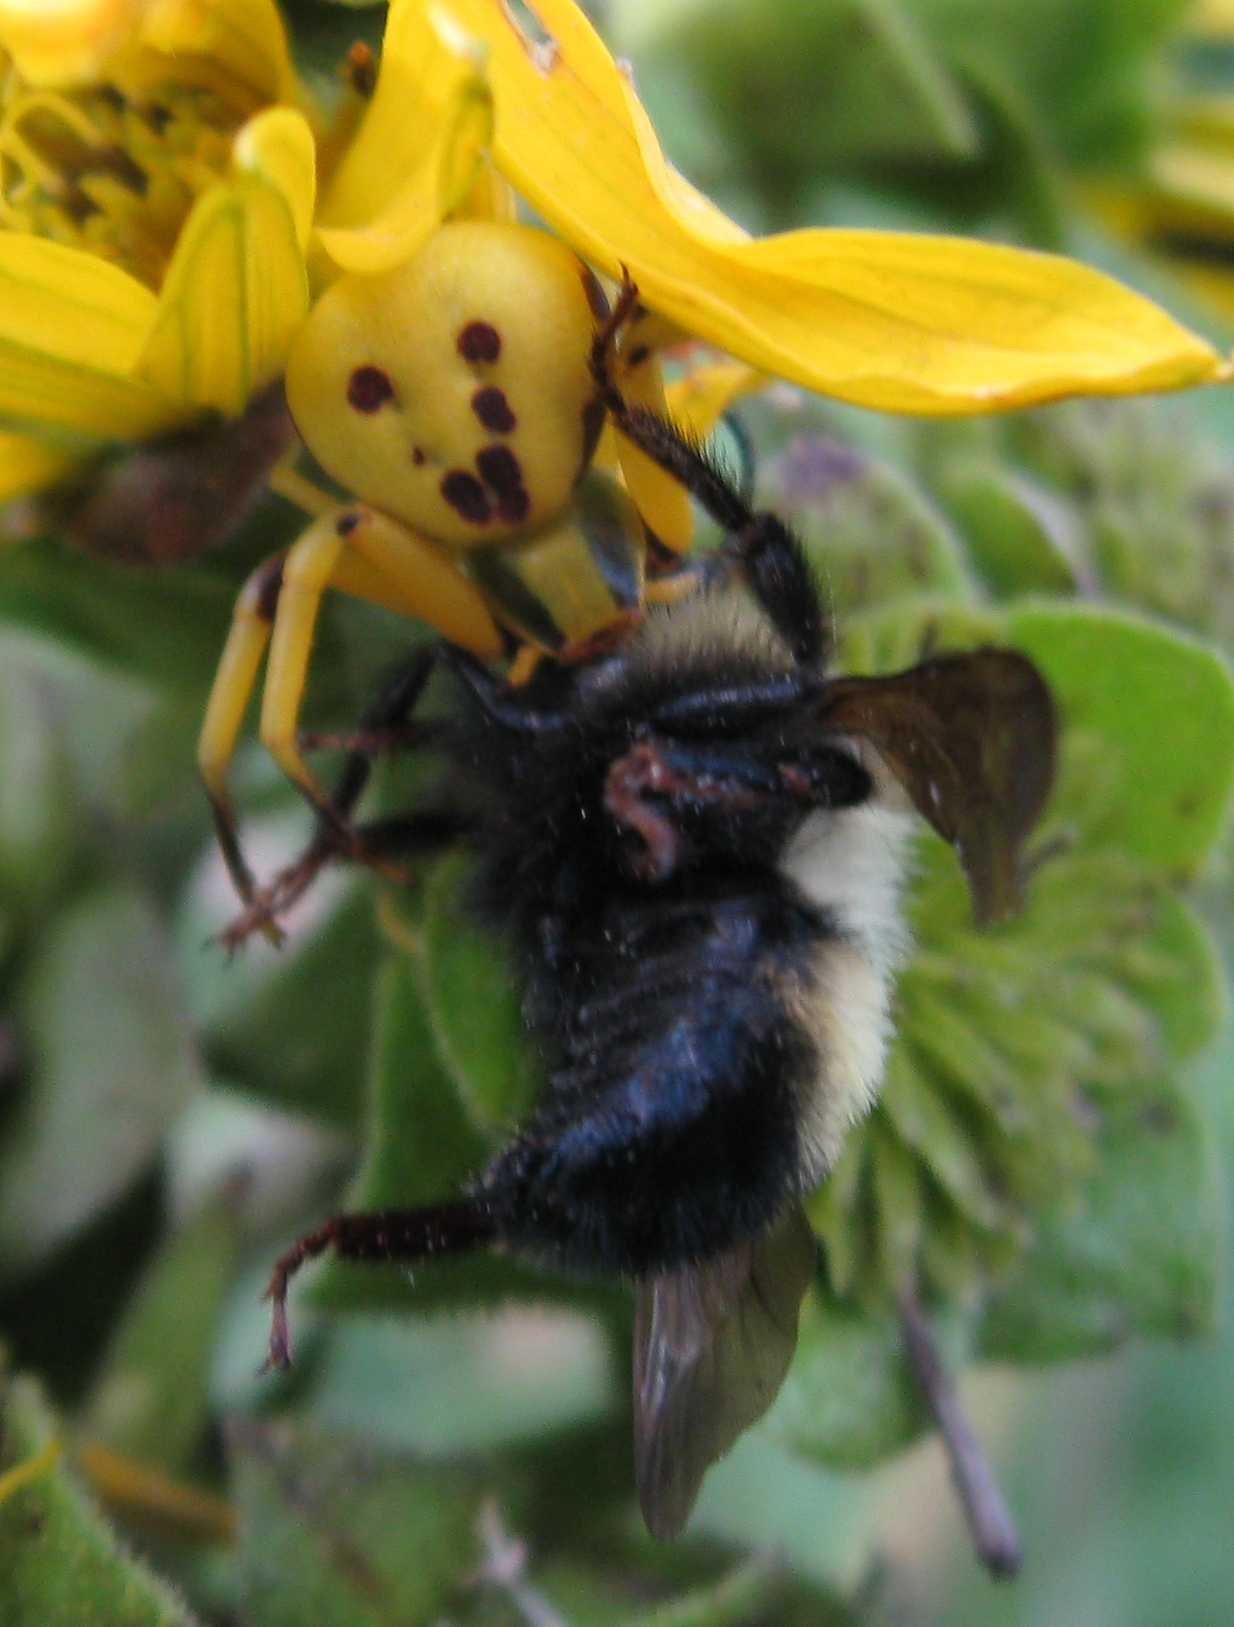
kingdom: Animalia
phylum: Arthropoda
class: Arachnida
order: Araneae
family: Thomisidae
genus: Misumenoides
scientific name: Misumenoides formosipes
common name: White-banded crab spider
